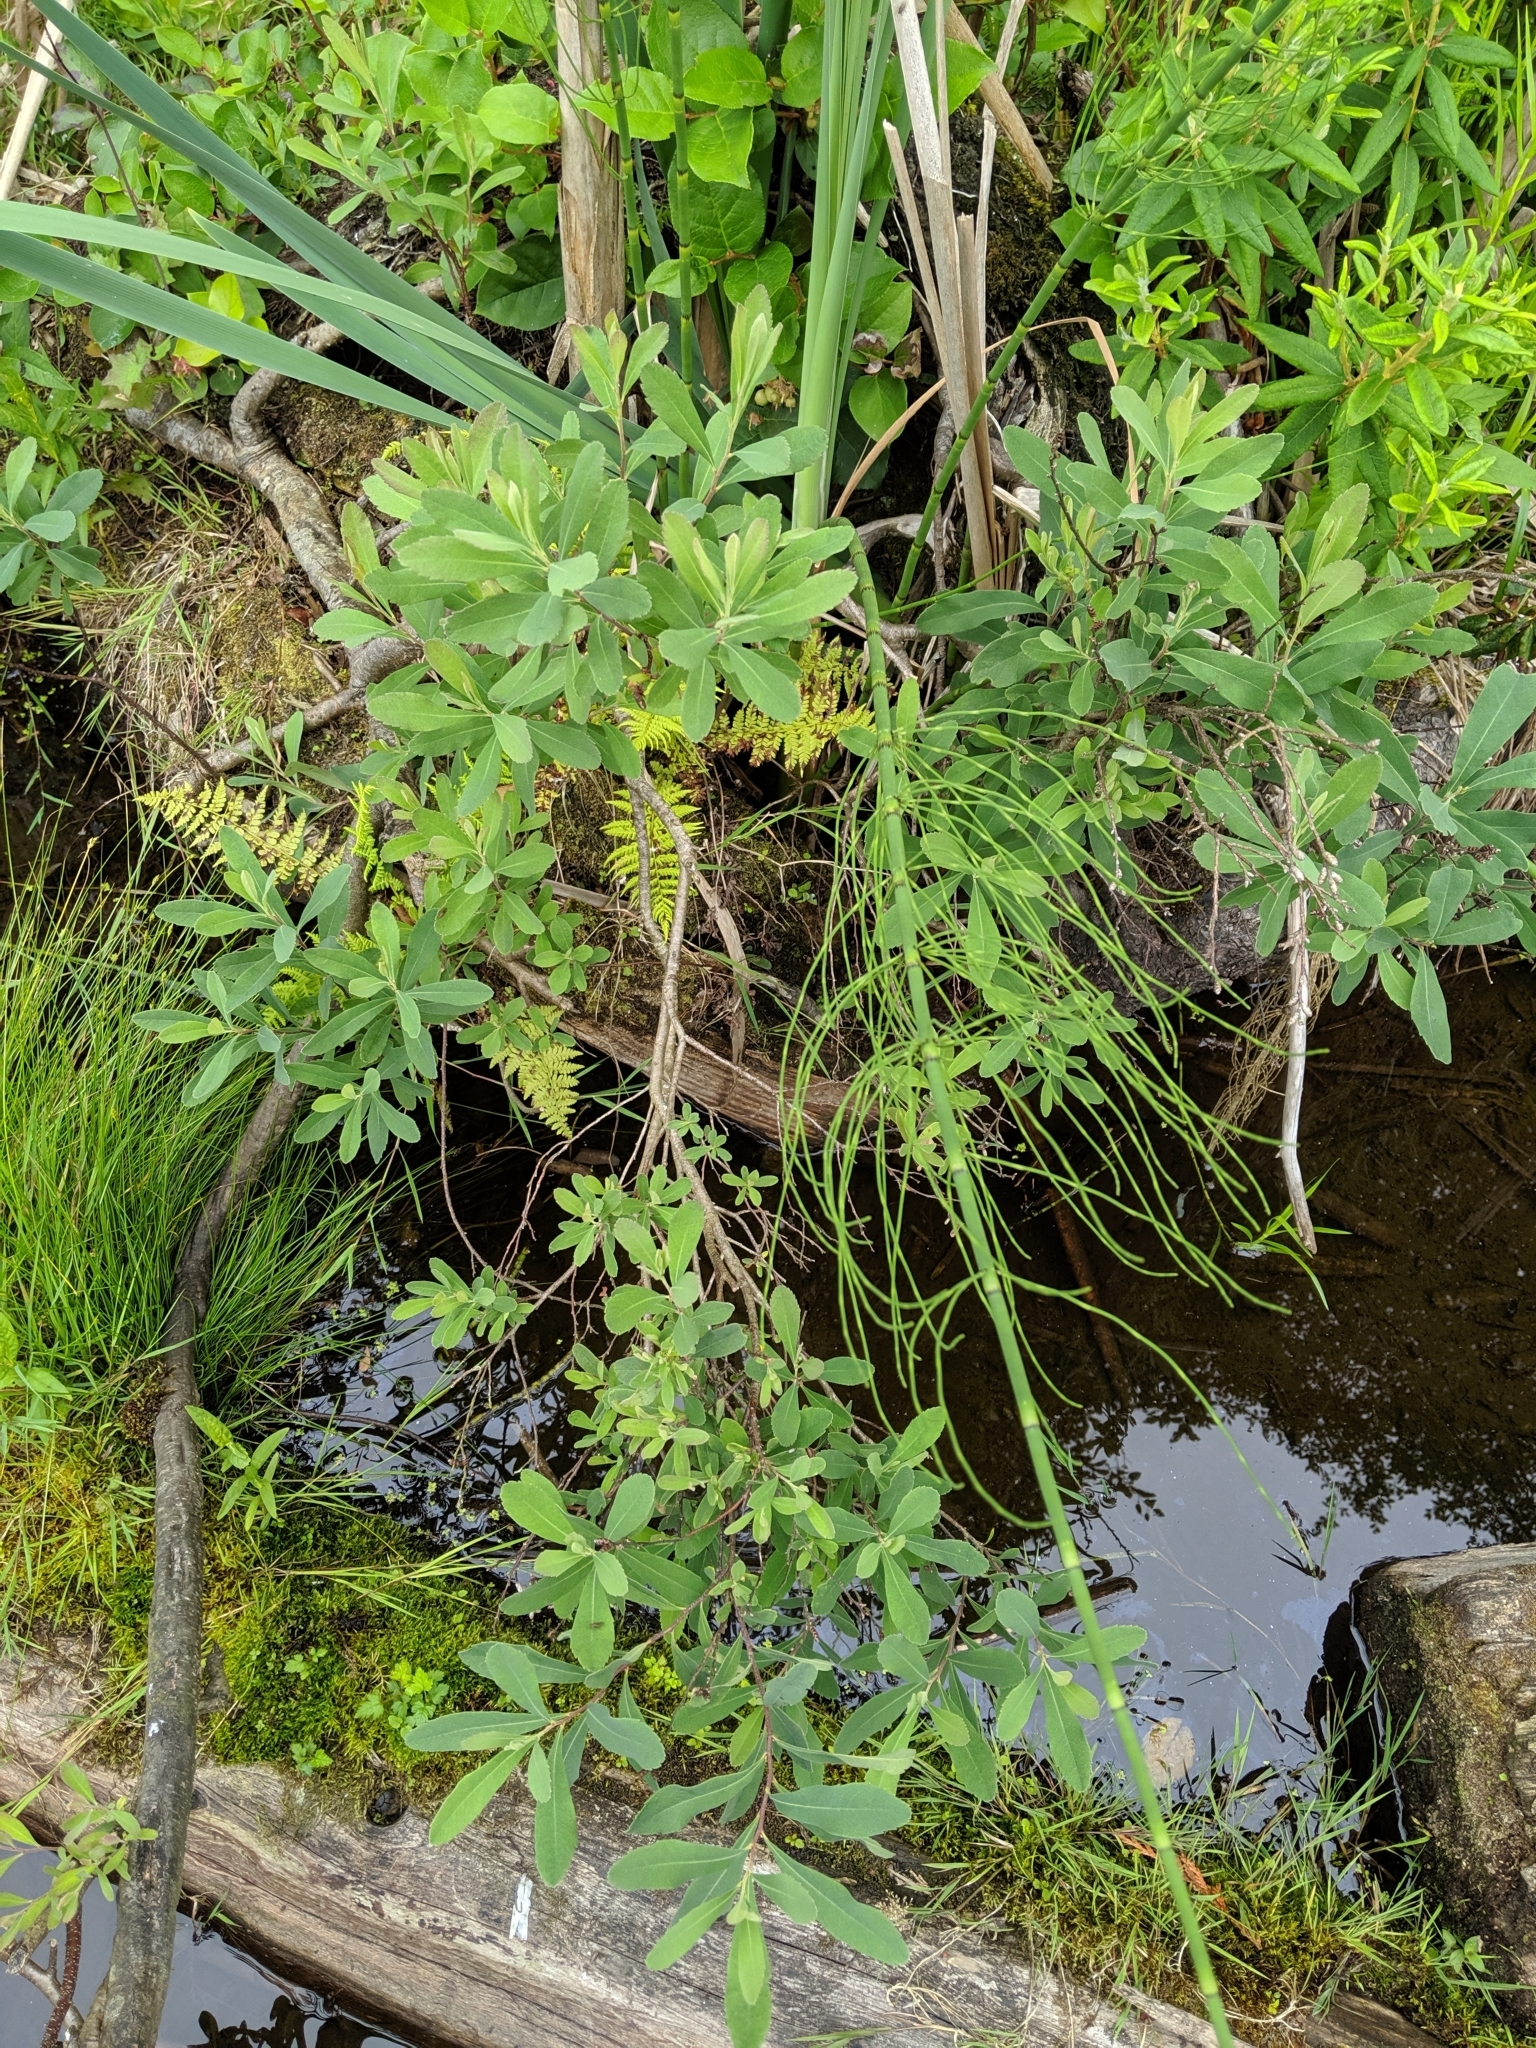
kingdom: Plantae
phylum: Tracheophyta
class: Magnoliopsida
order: Fagales
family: Myricaceae
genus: Myrica
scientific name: Myrica gale
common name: Sweet gale
